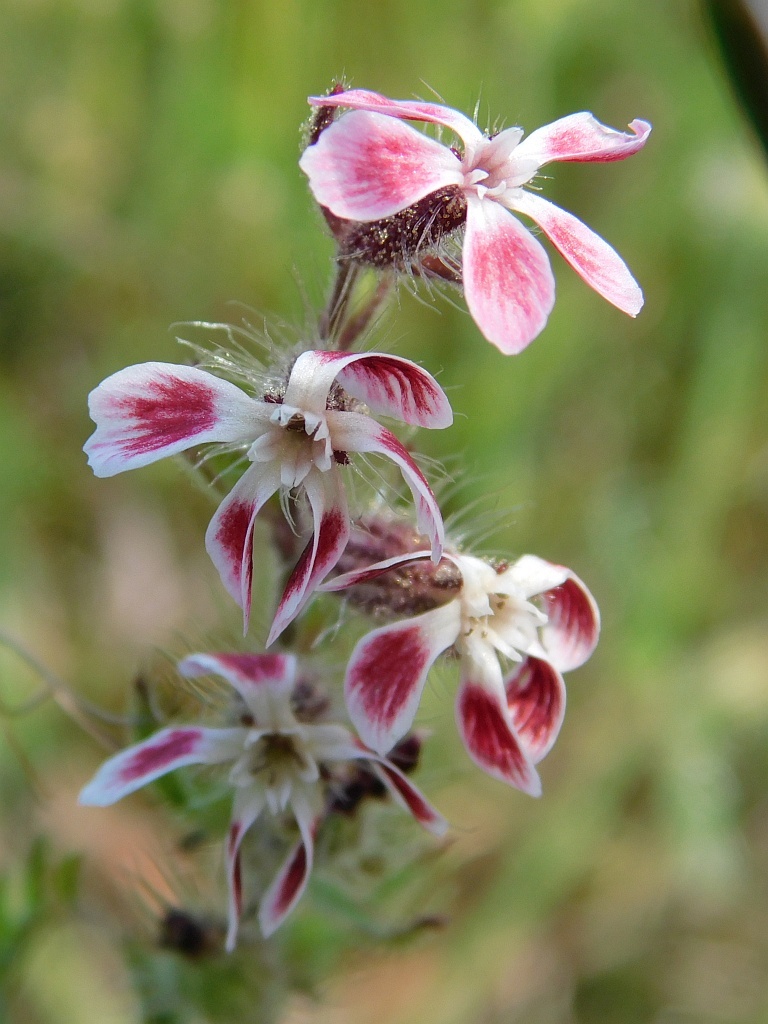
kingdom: Plantae
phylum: Tracheophyta
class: Magnoliopsida
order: Caryophyllales
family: Caryophyllaceae
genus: Silene
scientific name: Silene gallica
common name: Small-flowered catchfly
